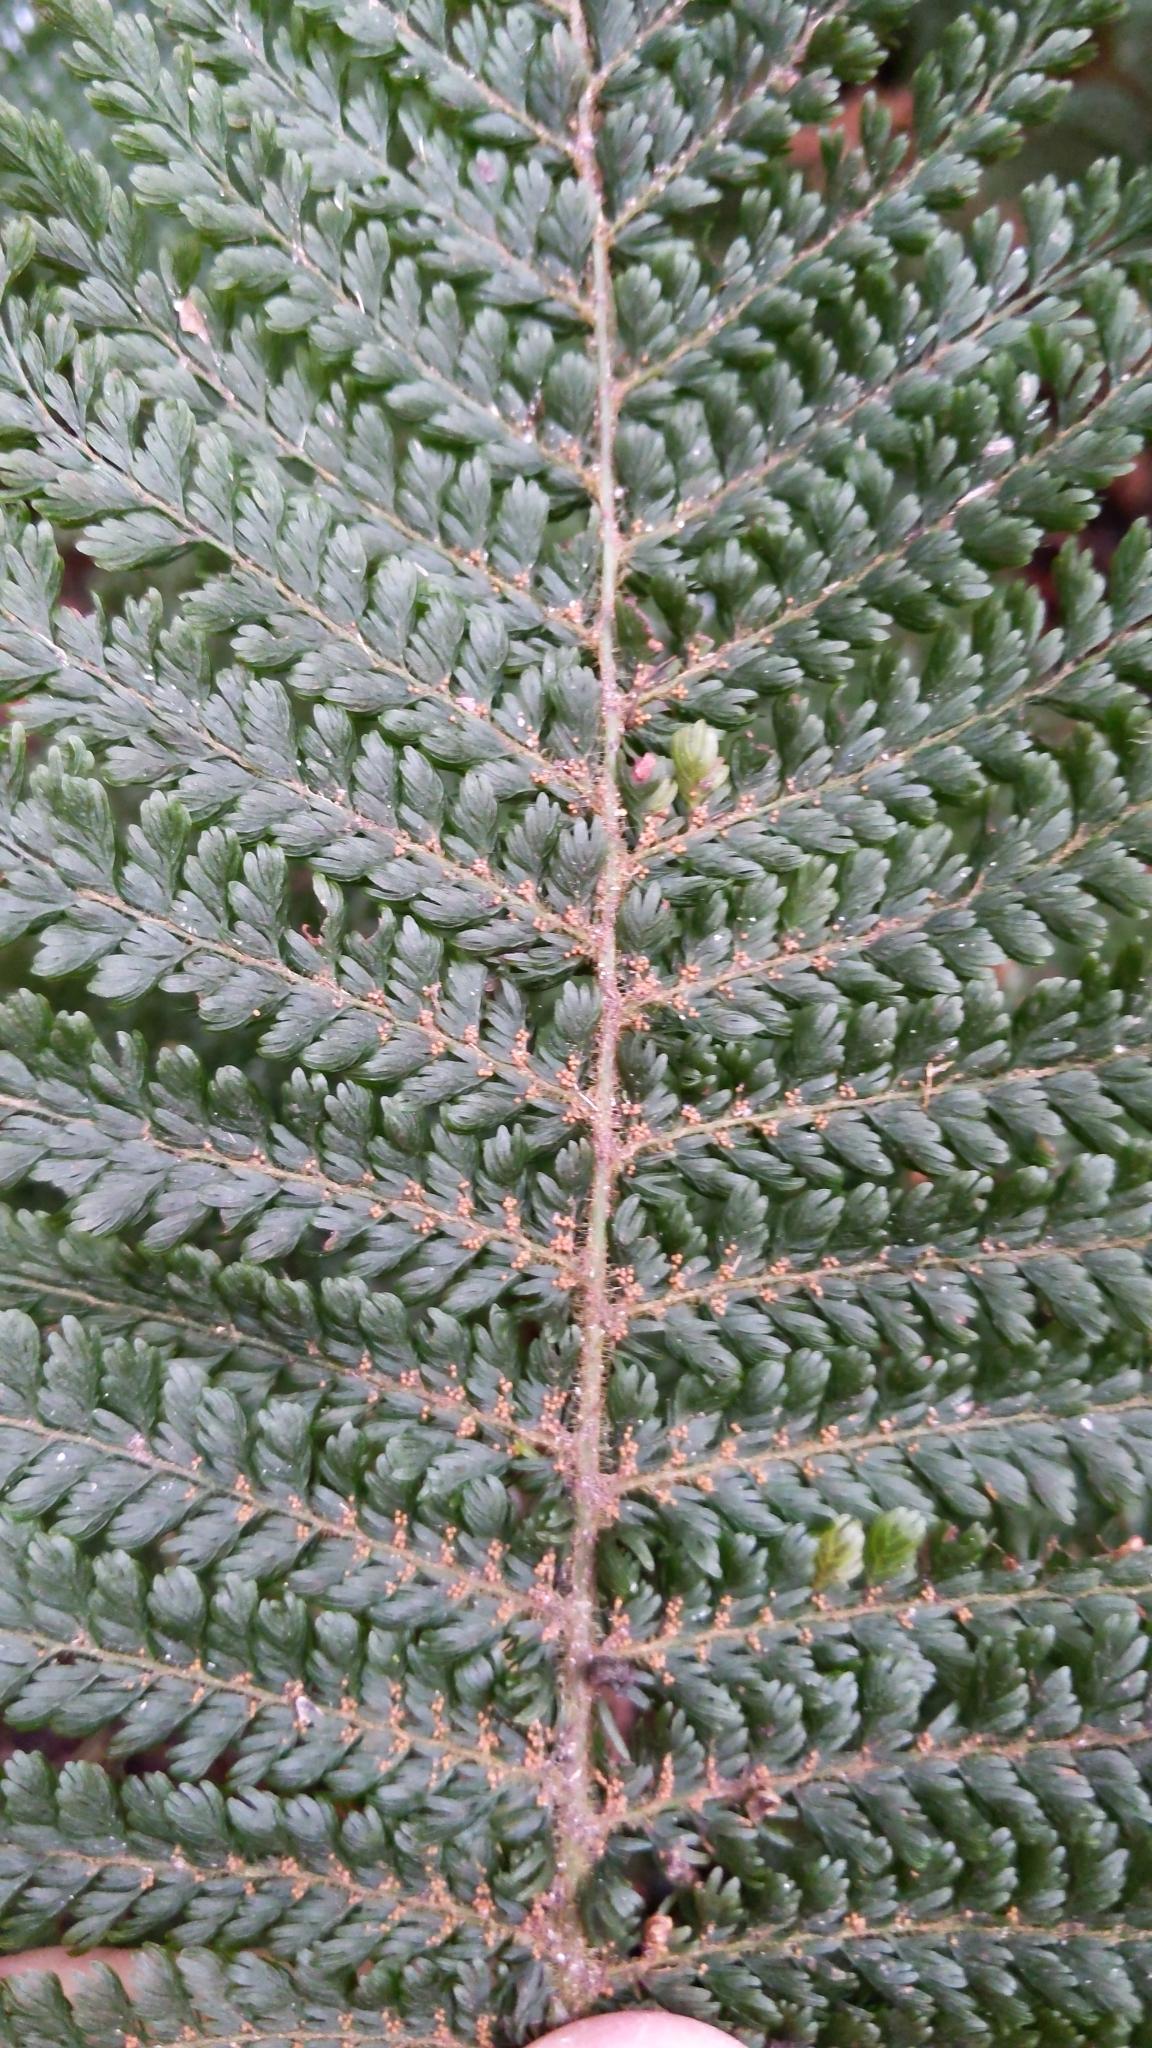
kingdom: Plantae
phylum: Tracheophyta
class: Polypodiopsida
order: Osmundales
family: Osmundaceae
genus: Leptopteris
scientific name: Leptopteris superba
